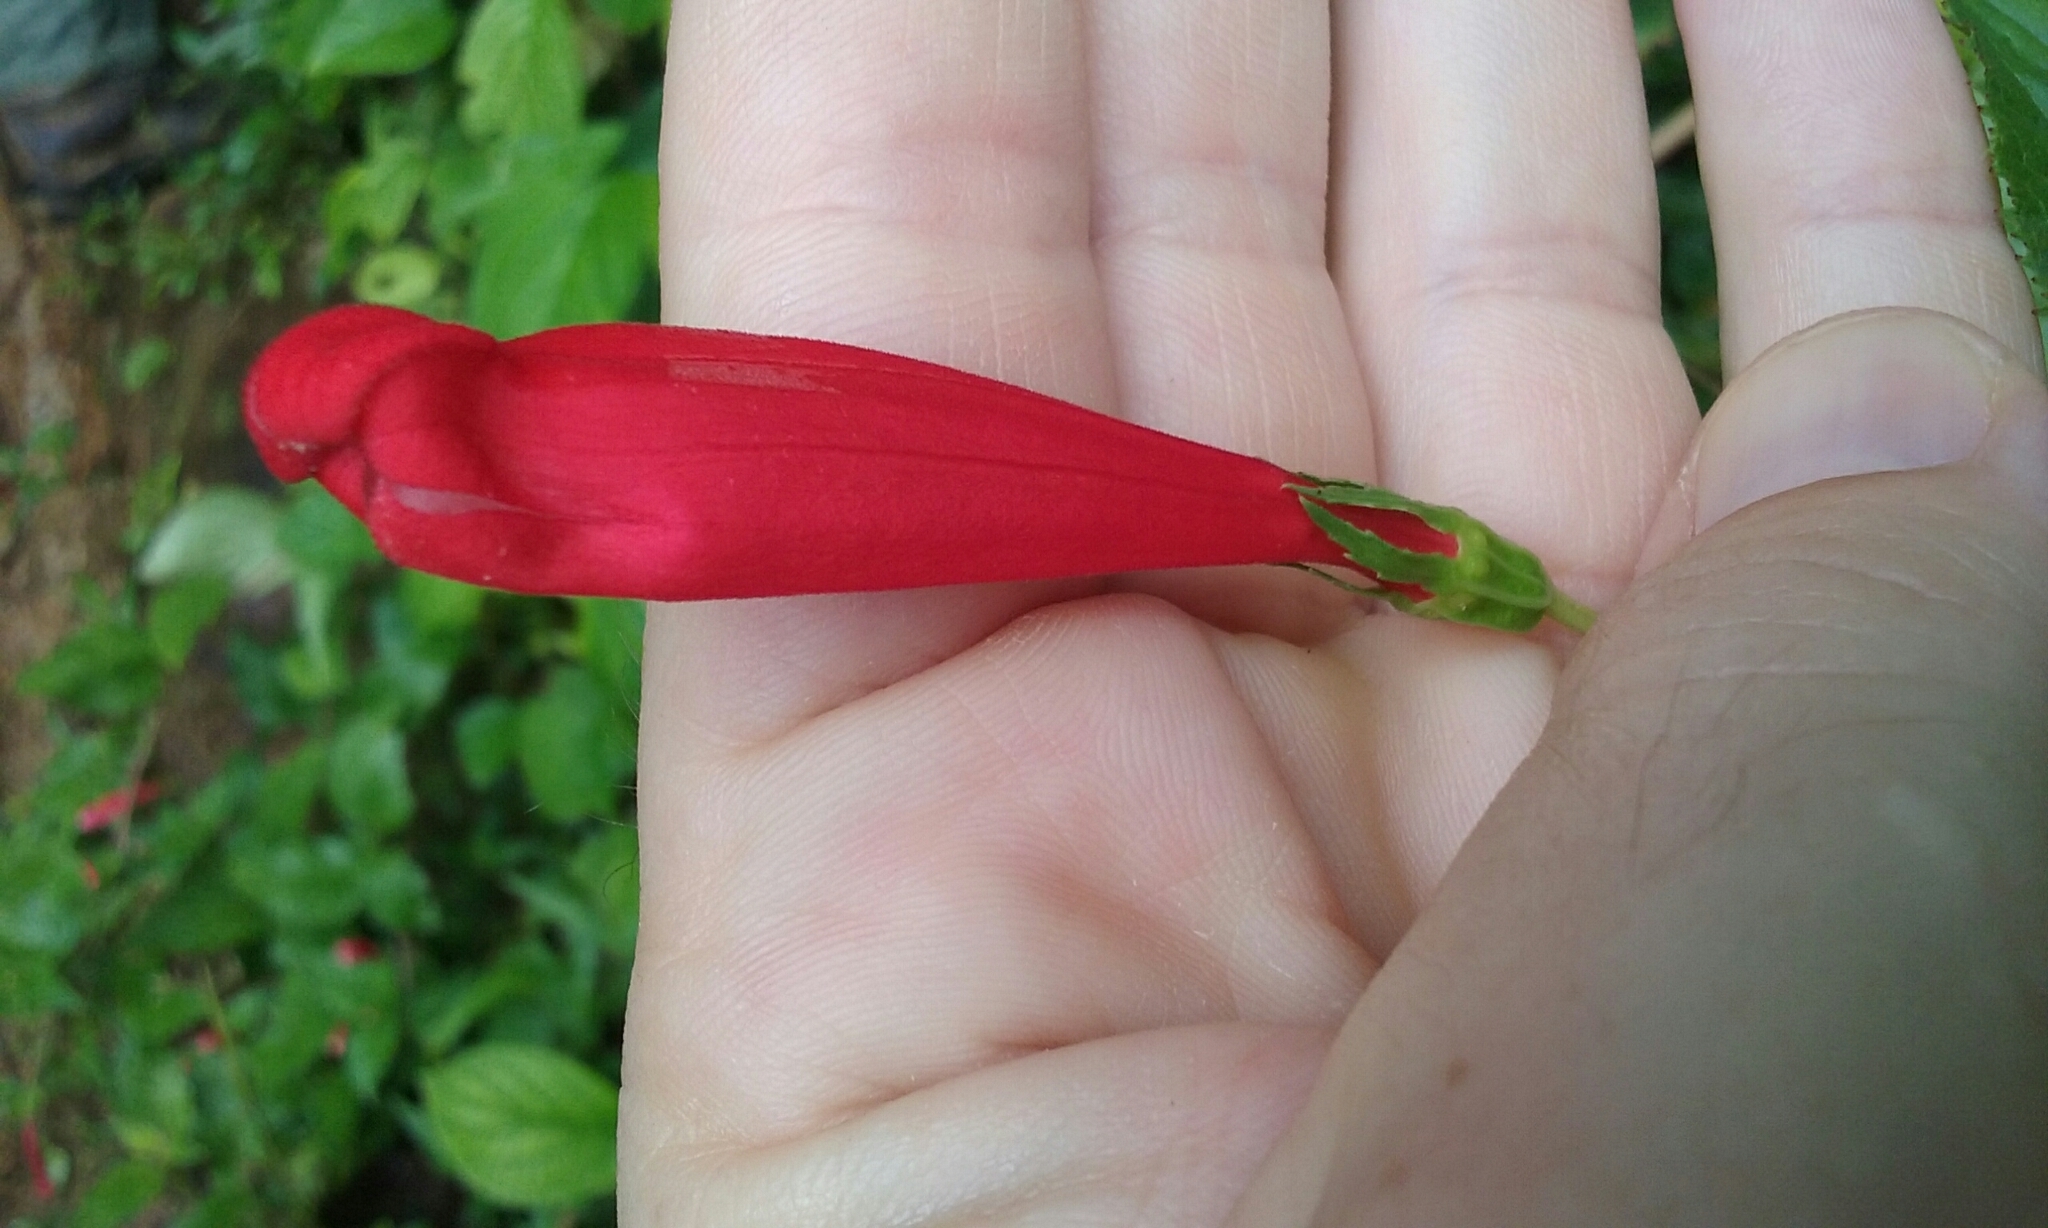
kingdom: Plantae
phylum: Tracheophyta
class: Magnoliopsida
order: Asterales
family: Campanulaceae
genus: Centropogon
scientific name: Centropogon coccineus
